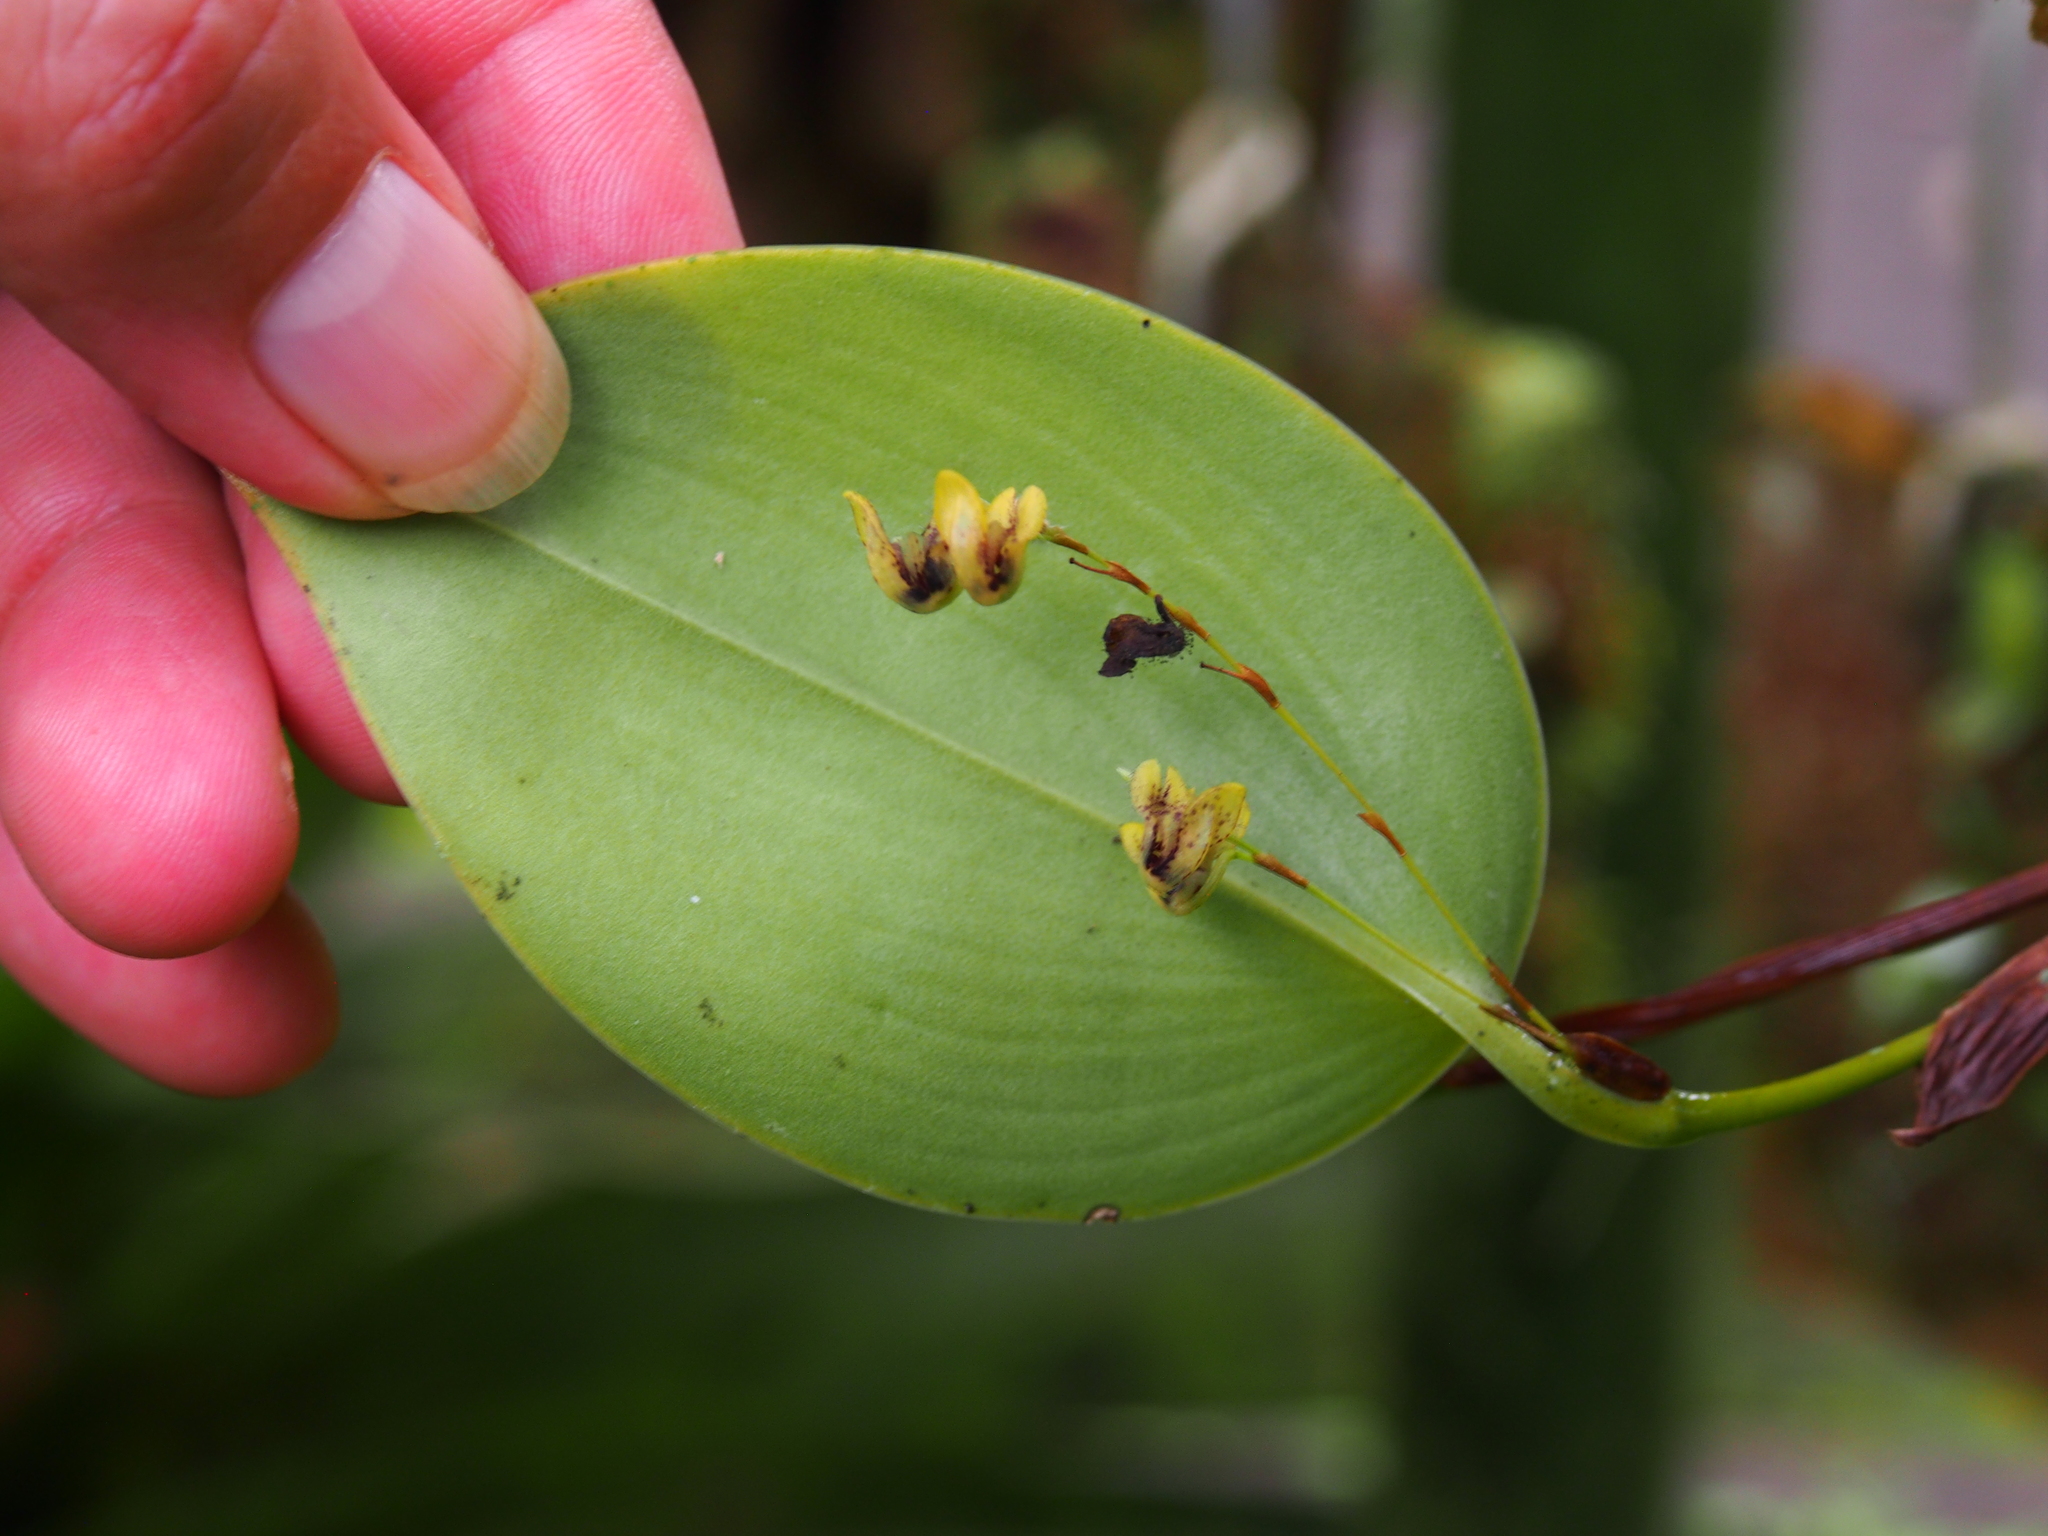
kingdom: Plantae
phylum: Tracheophyta
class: Liliopsida
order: Asparagales
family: Orchidaceae
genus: Stelis
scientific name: Stelis imraei
